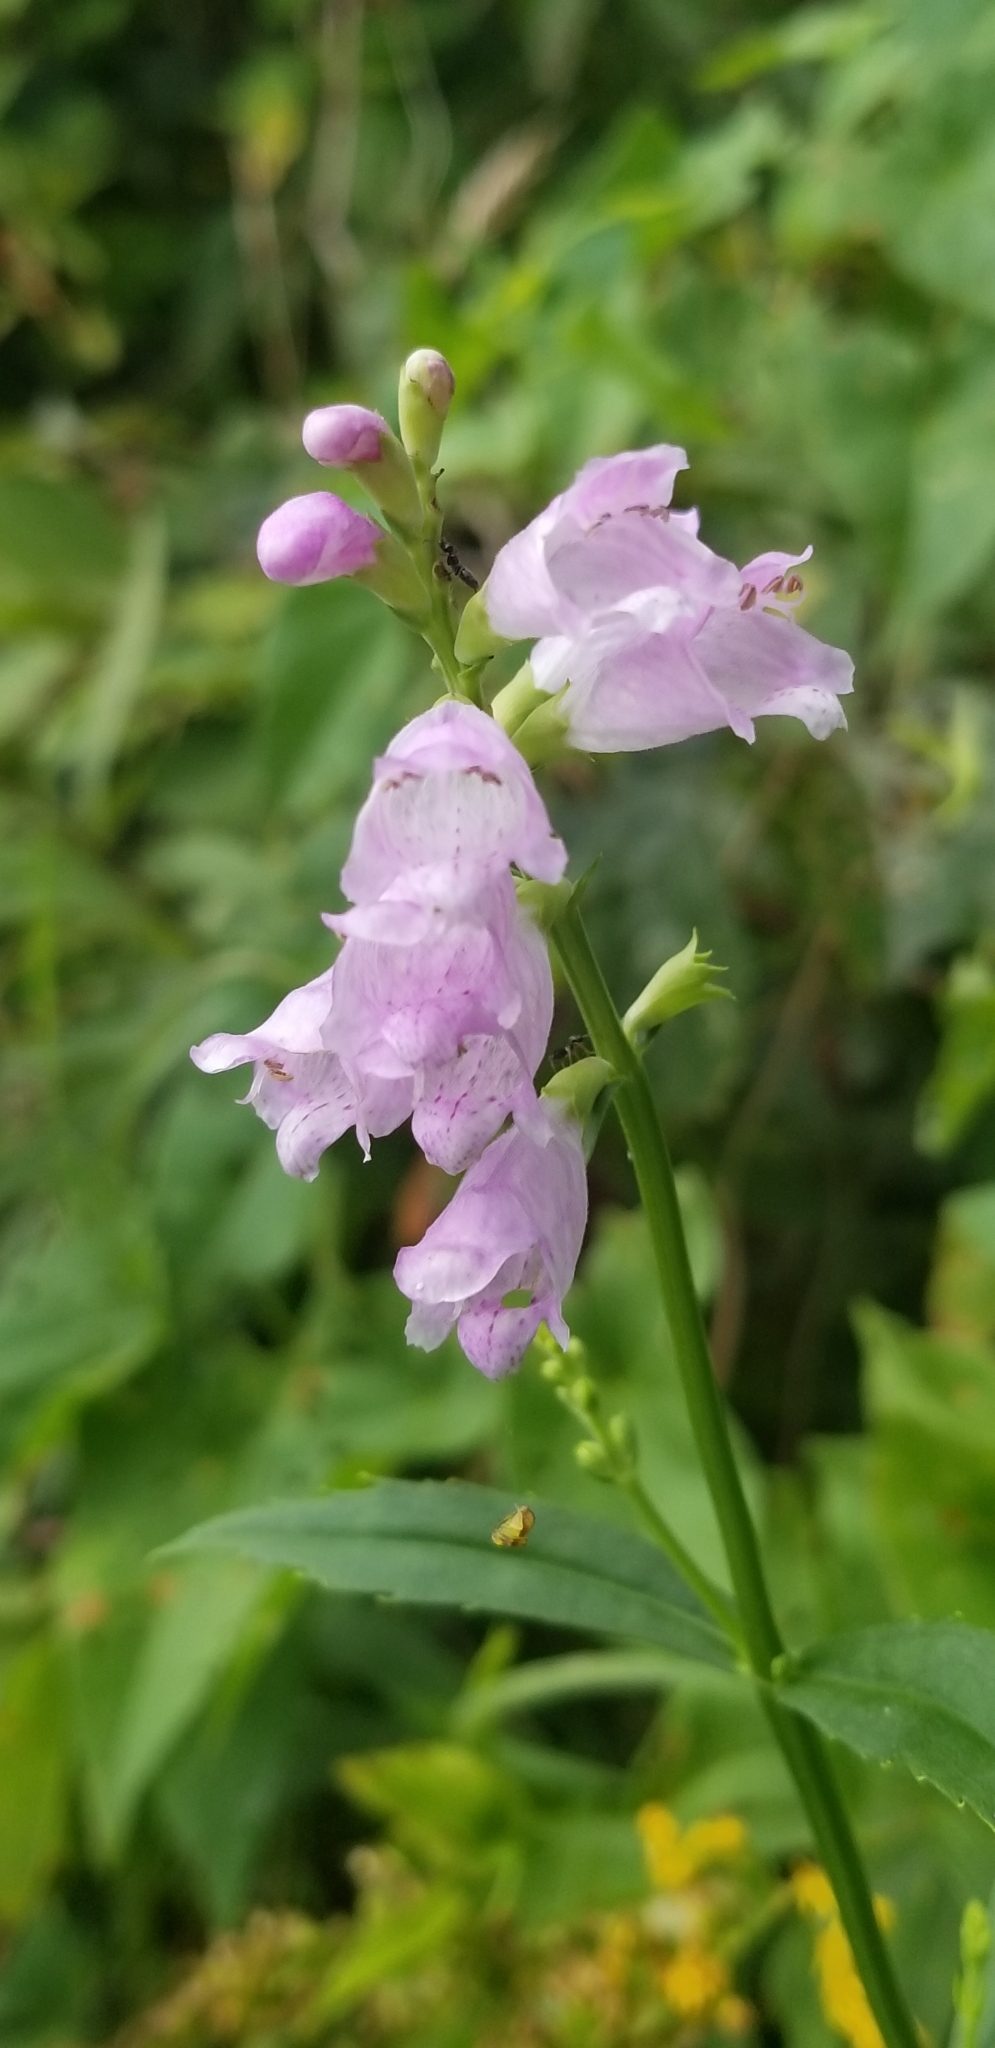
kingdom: Plantae
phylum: Tracheophyta
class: Magnoliopsida
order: Lamiales
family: Lamiaceae
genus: Physostegia
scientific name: Physostegia virginiana
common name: Obedient-plant
